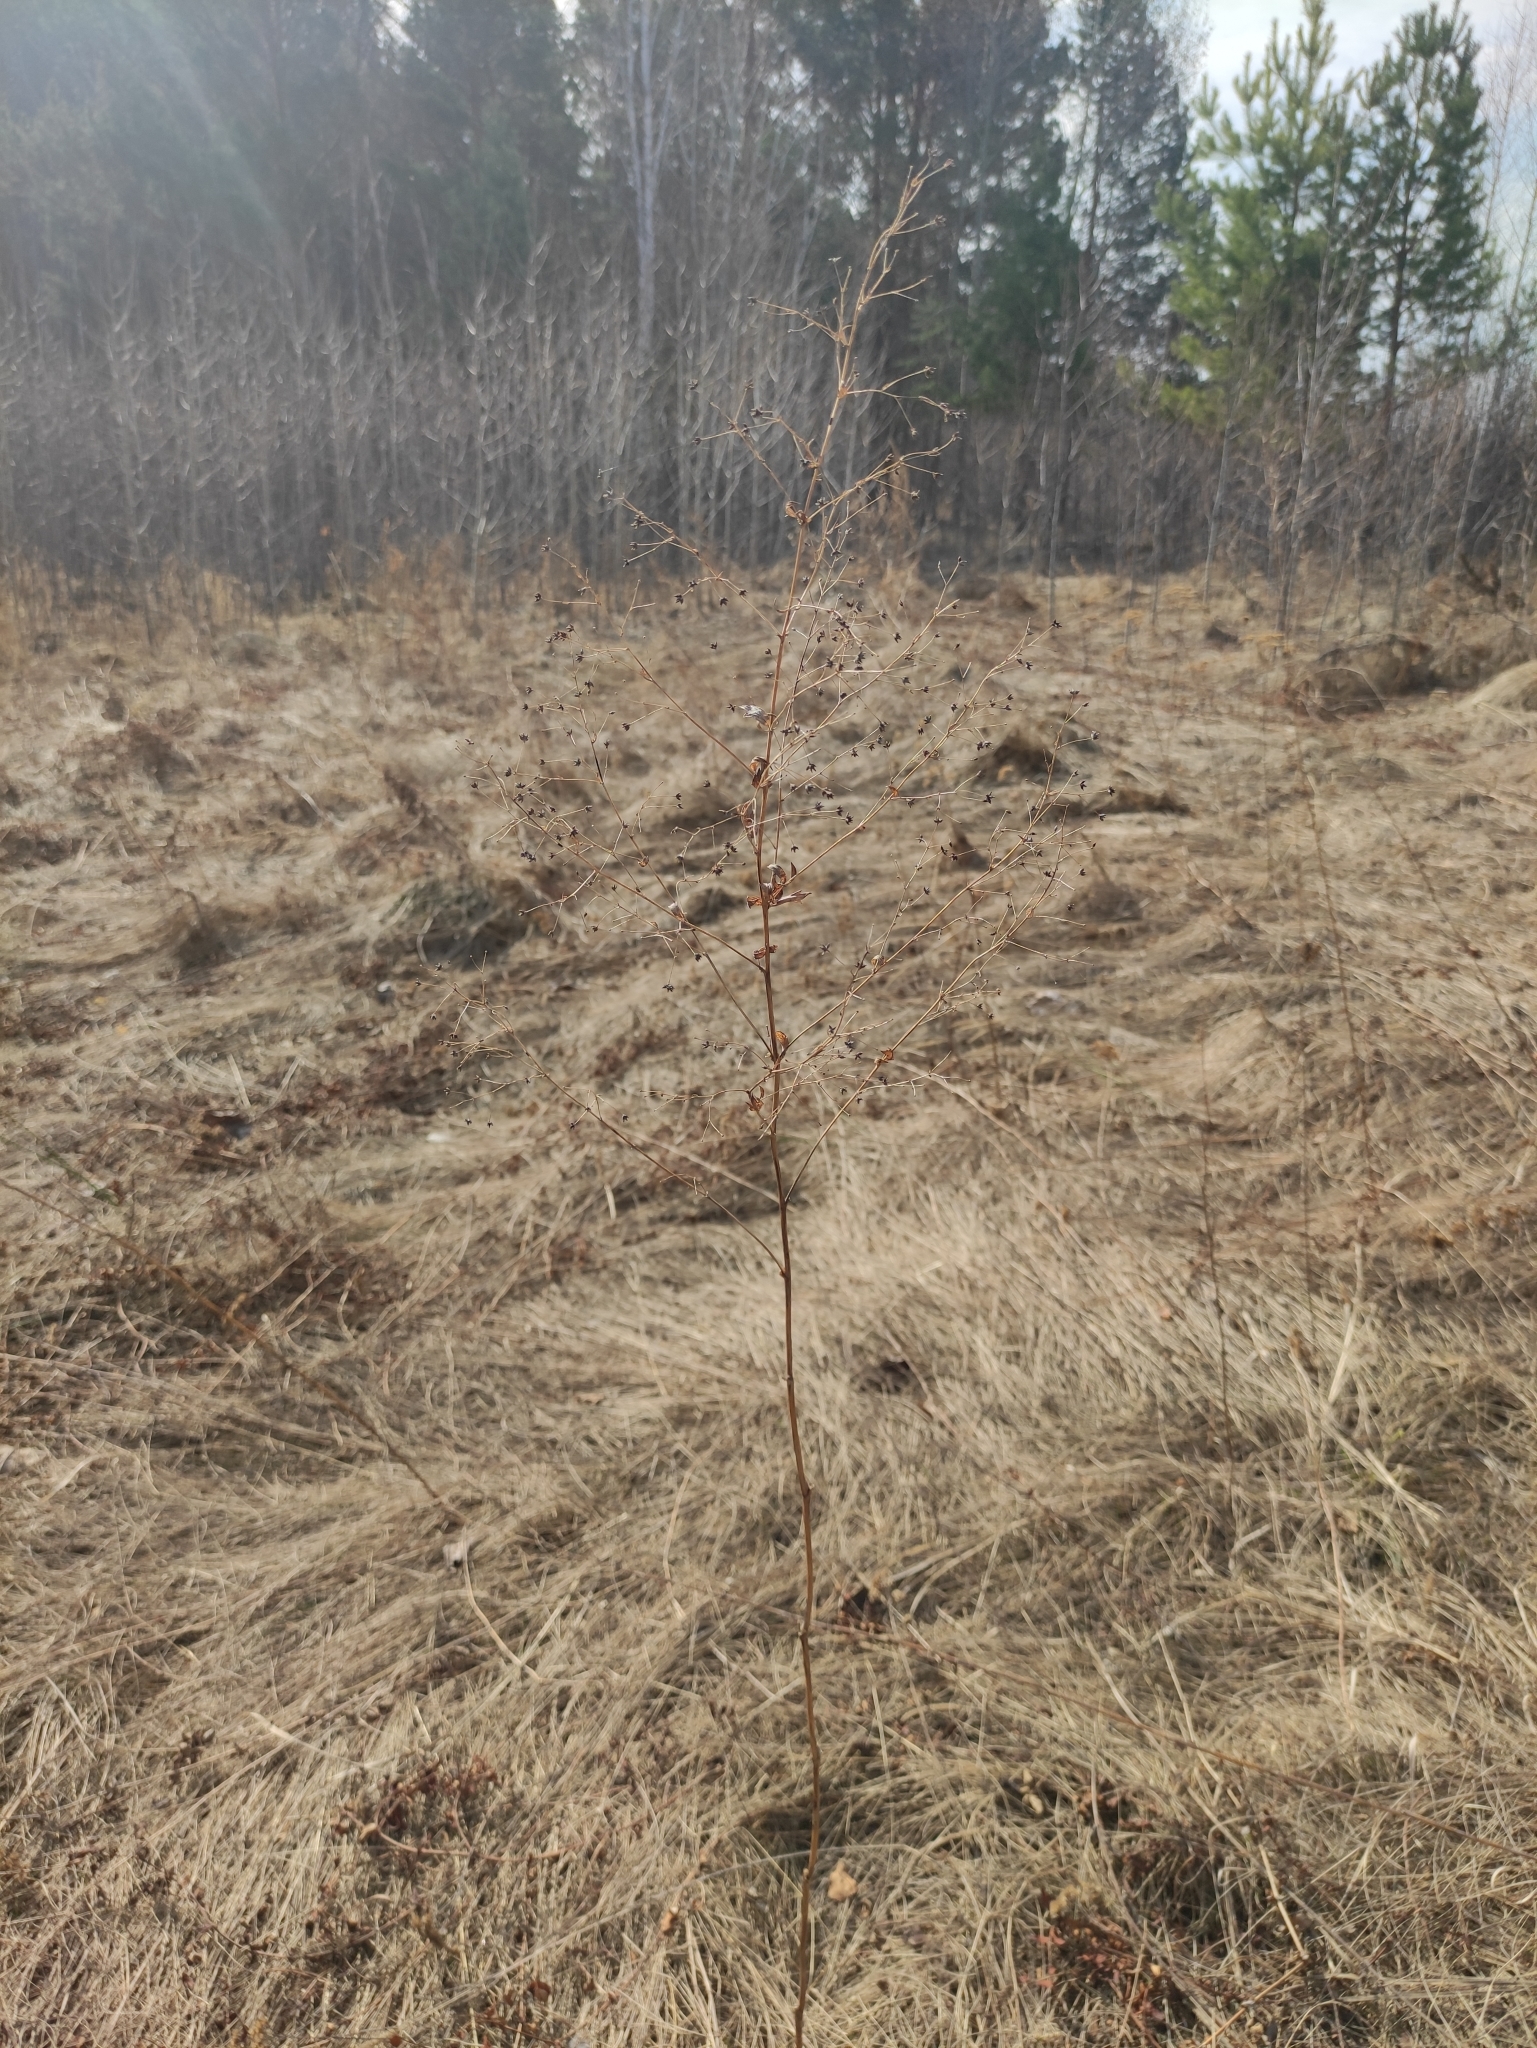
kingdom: Plantae
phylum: Tracheophyta
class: Magnoliopsida
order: Ranunculales
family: Ranunculaceae
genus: Thalictrum
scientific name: Thalictrum simplex
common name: Small meadow-rue
